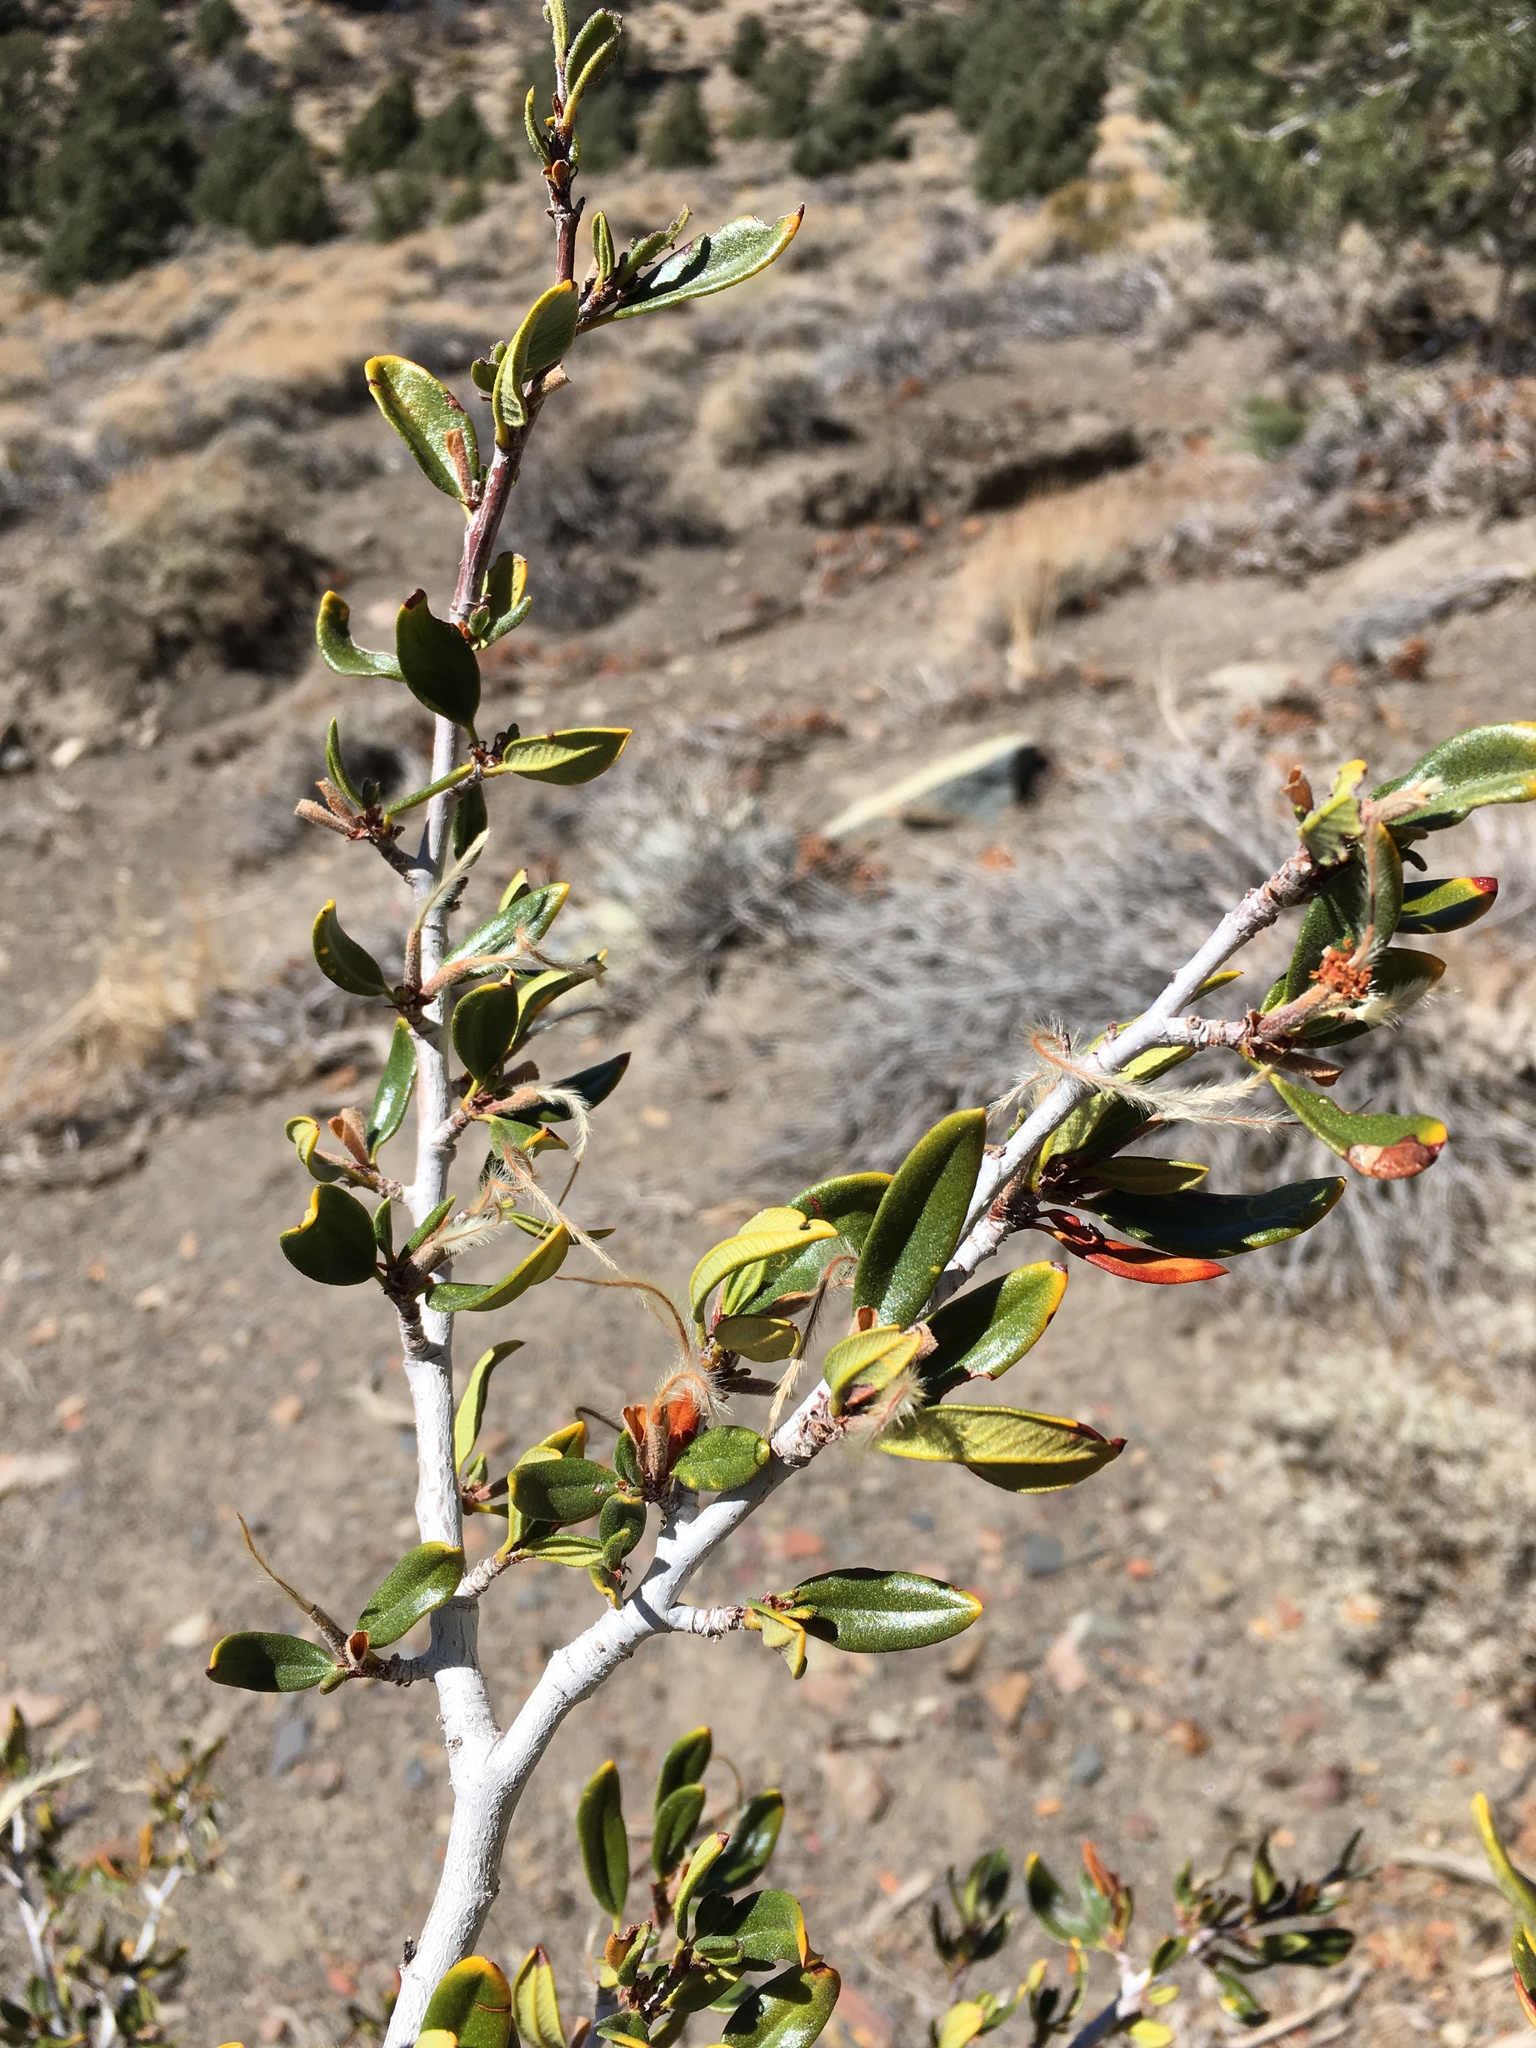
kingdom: Plantae
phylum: Tracheophyta
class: Magnoliopsida
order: Rosales
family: Rosaceae
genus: Cercocarpus
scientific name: Cercocarpus ledifolius
